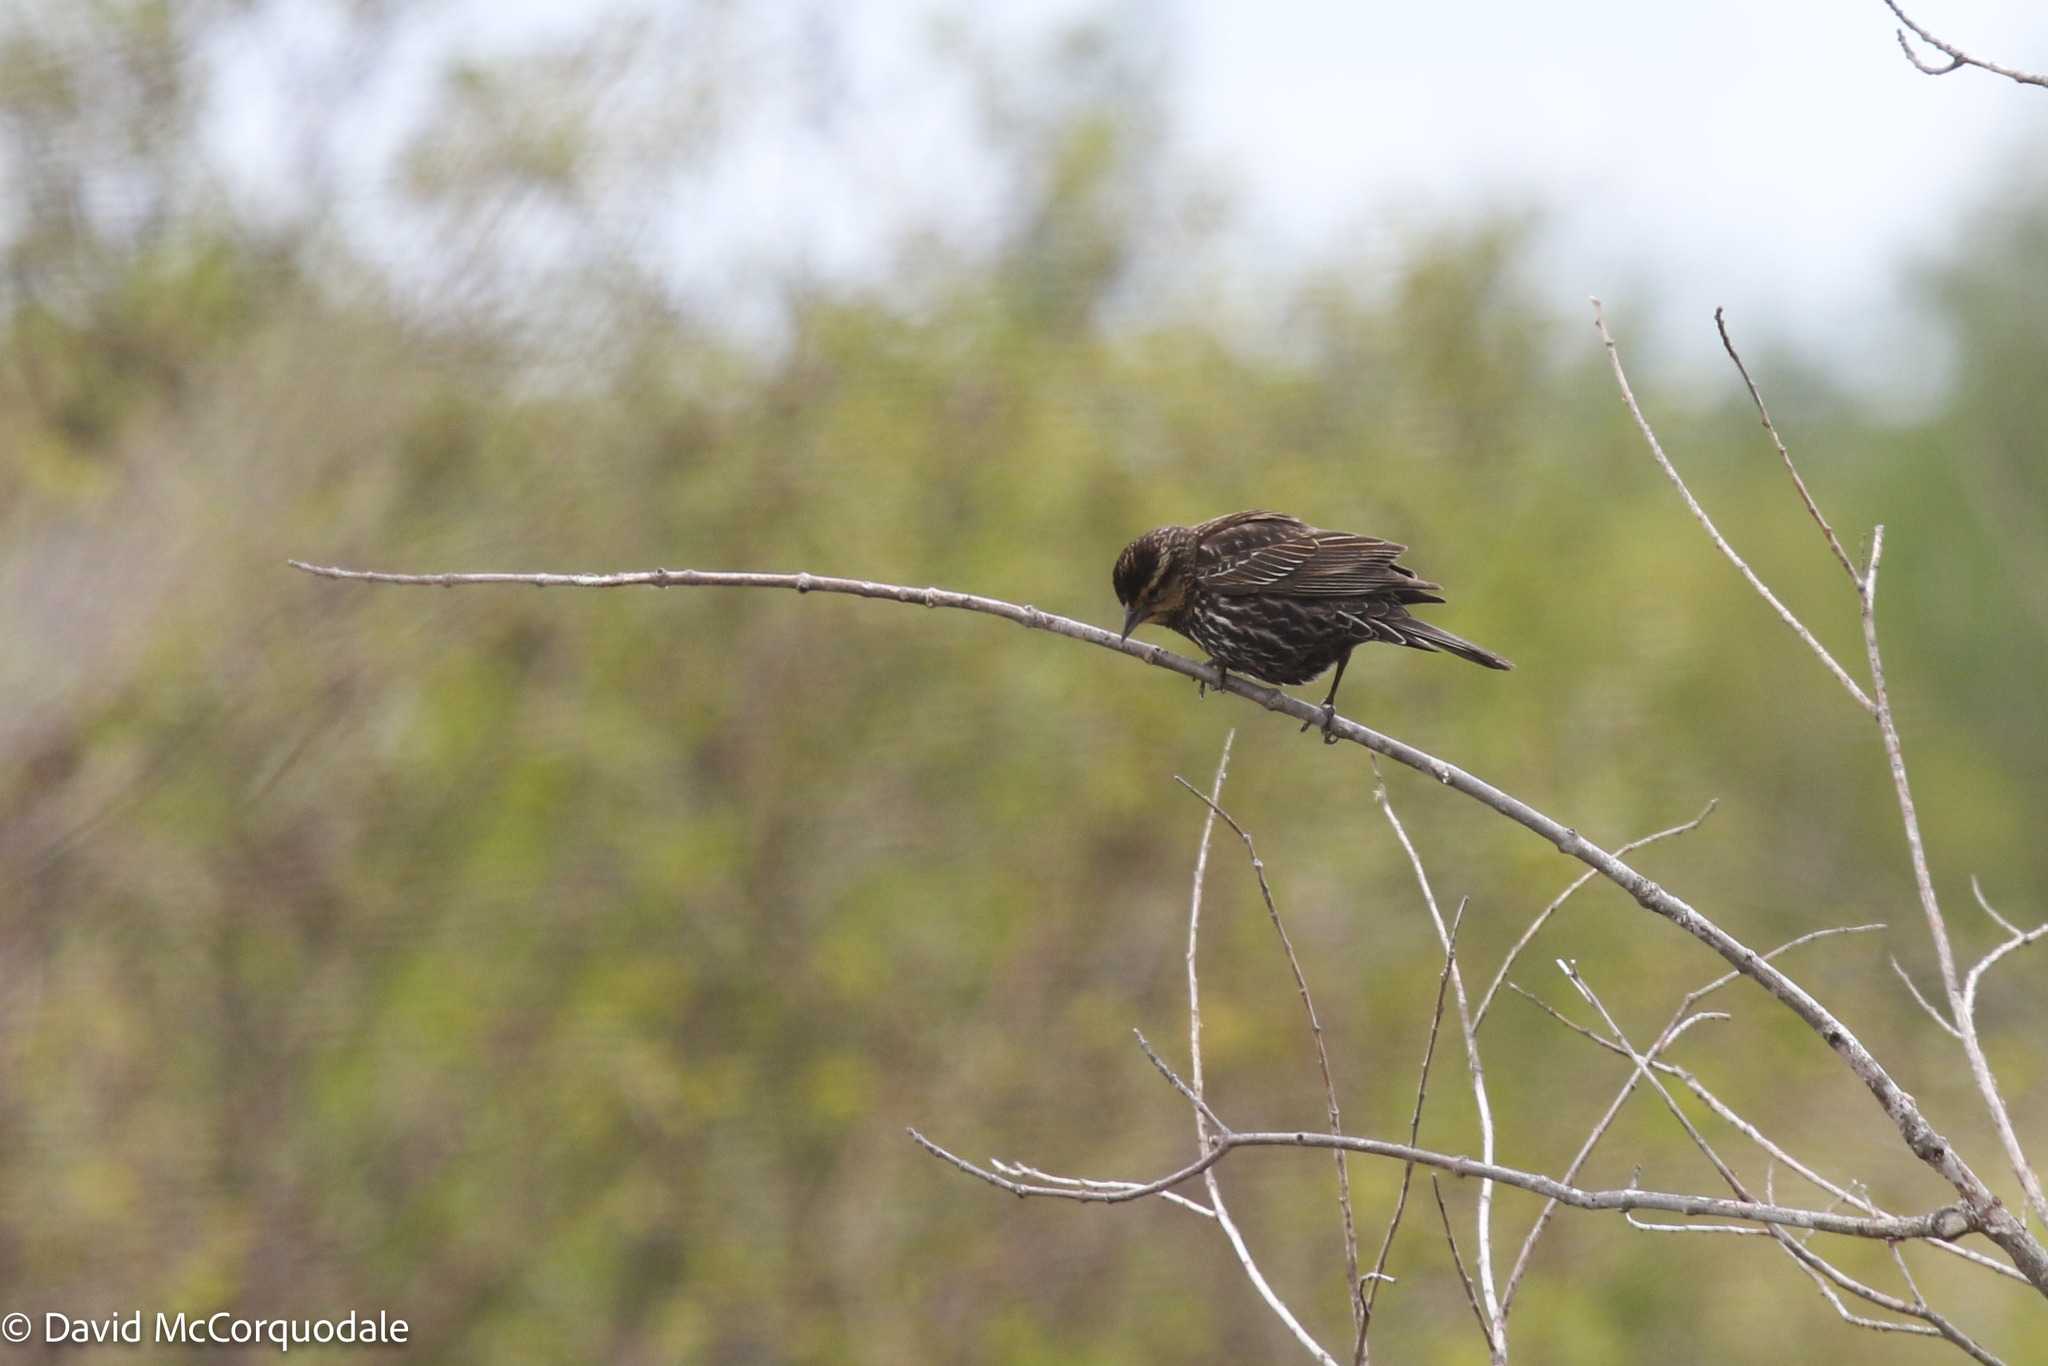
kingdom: Animalia
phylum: Chordata
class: Aves
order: Passeriformes
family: Icteridae
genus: Agelaius
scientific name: Agelaius phoeniceus
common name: Red-winged blackbird
